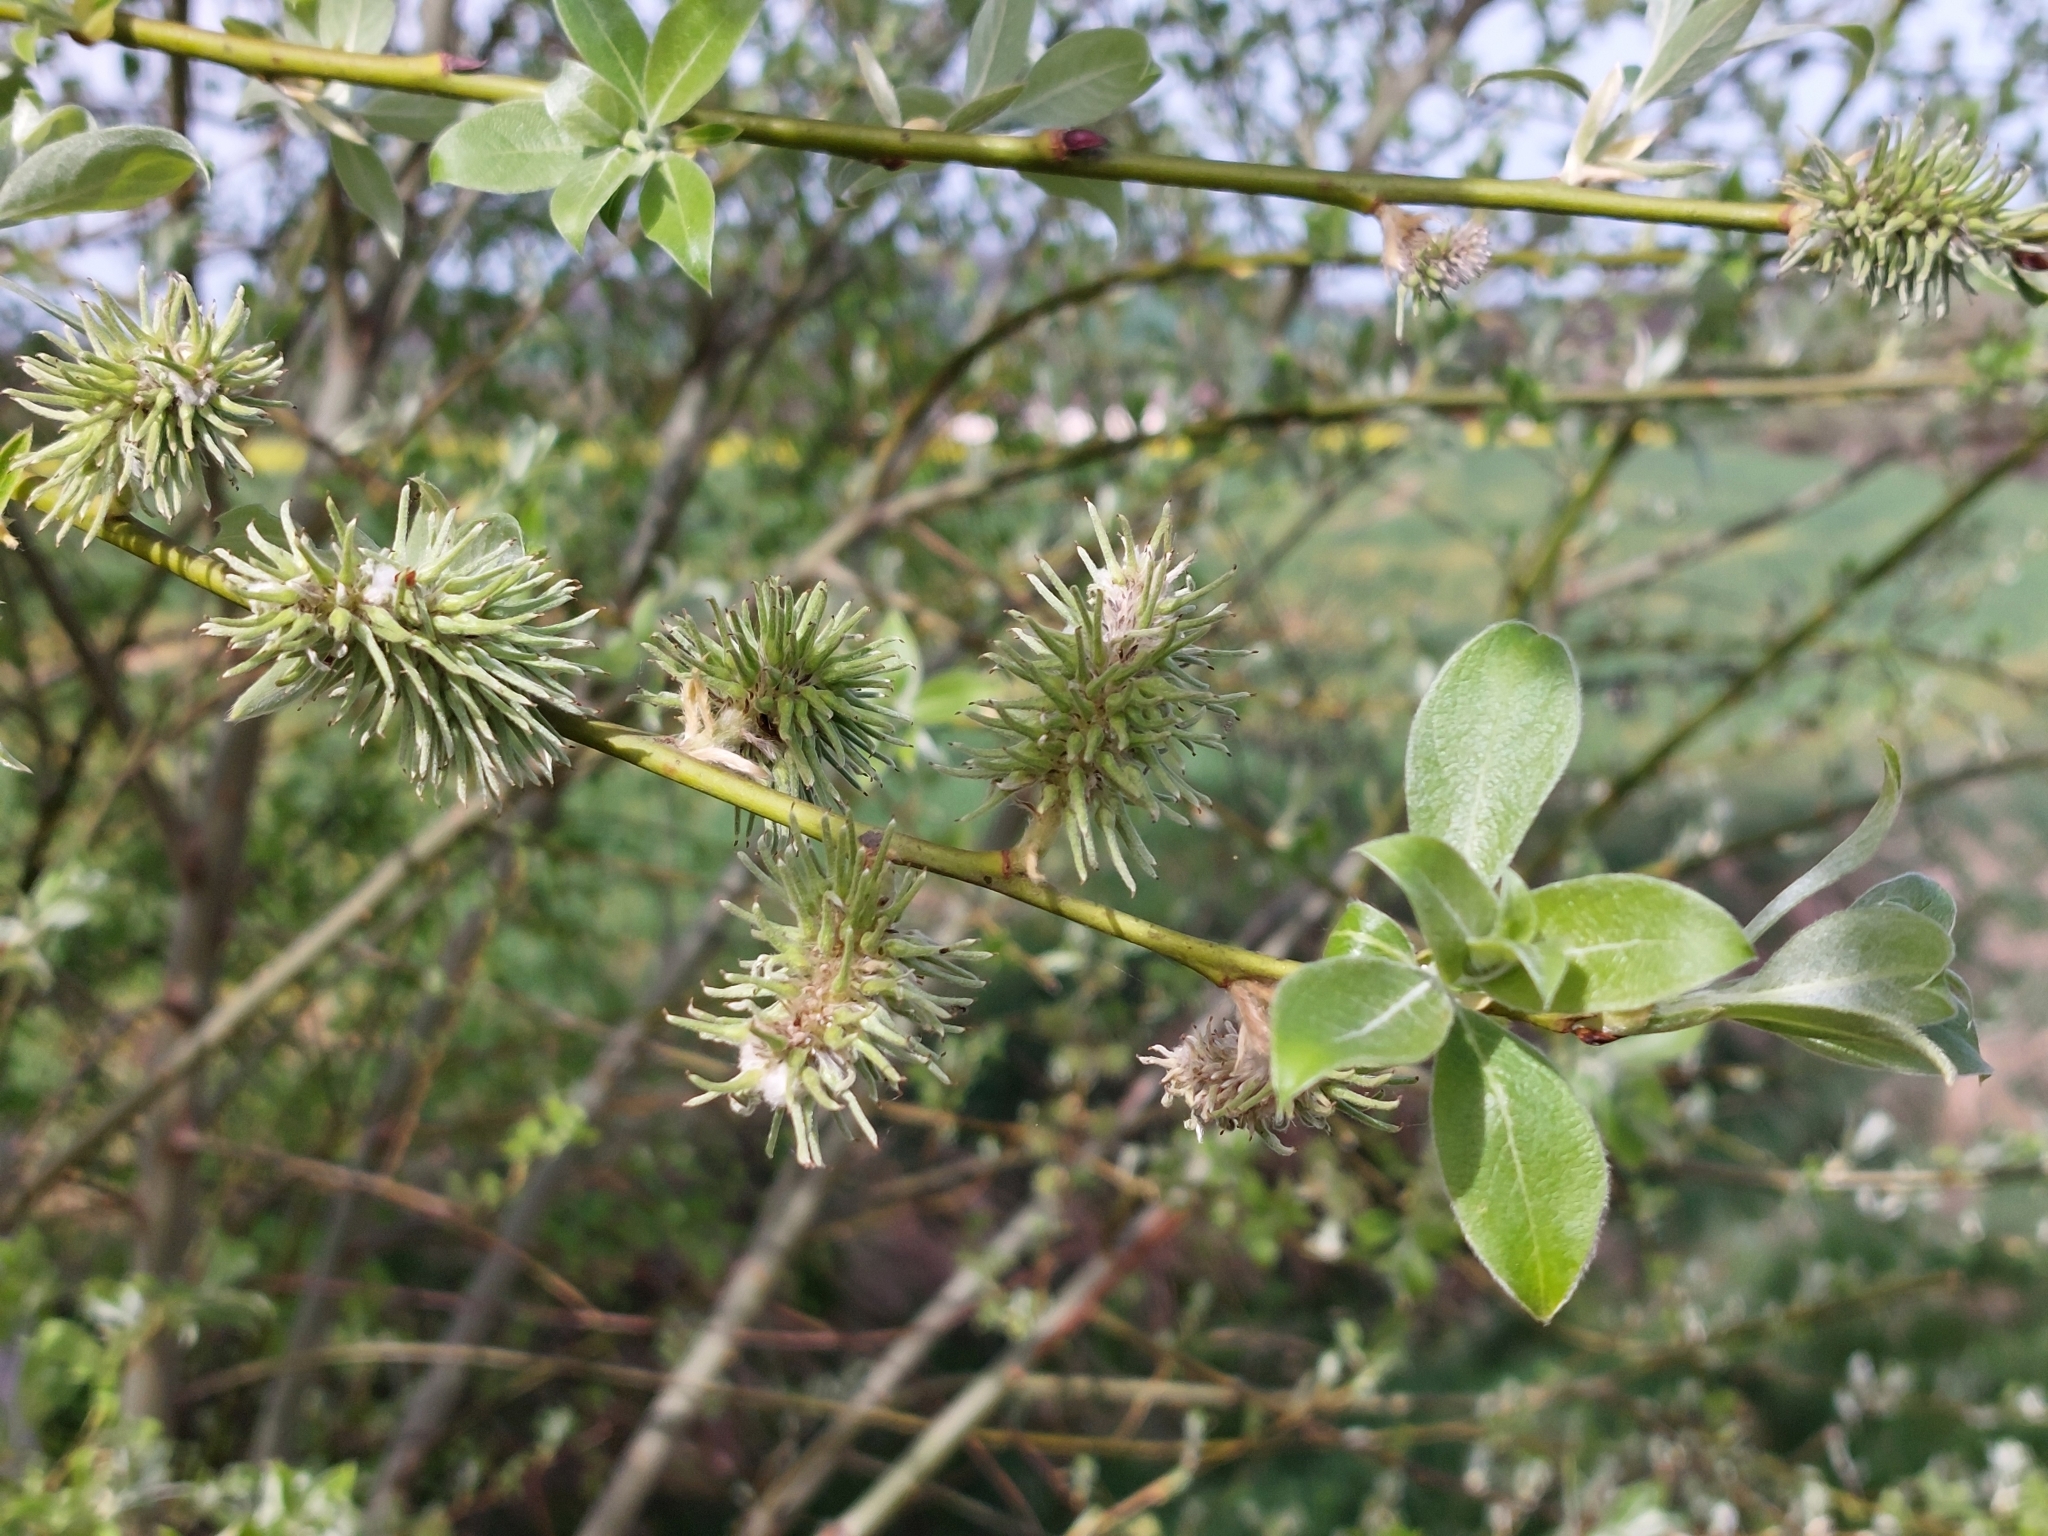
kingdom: Plantae
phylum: Tracheophyta
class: Magnoliopsida
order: Malpighiales
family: Salicaceae
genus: Salix
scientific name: Salix caprea
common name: Goat willow
